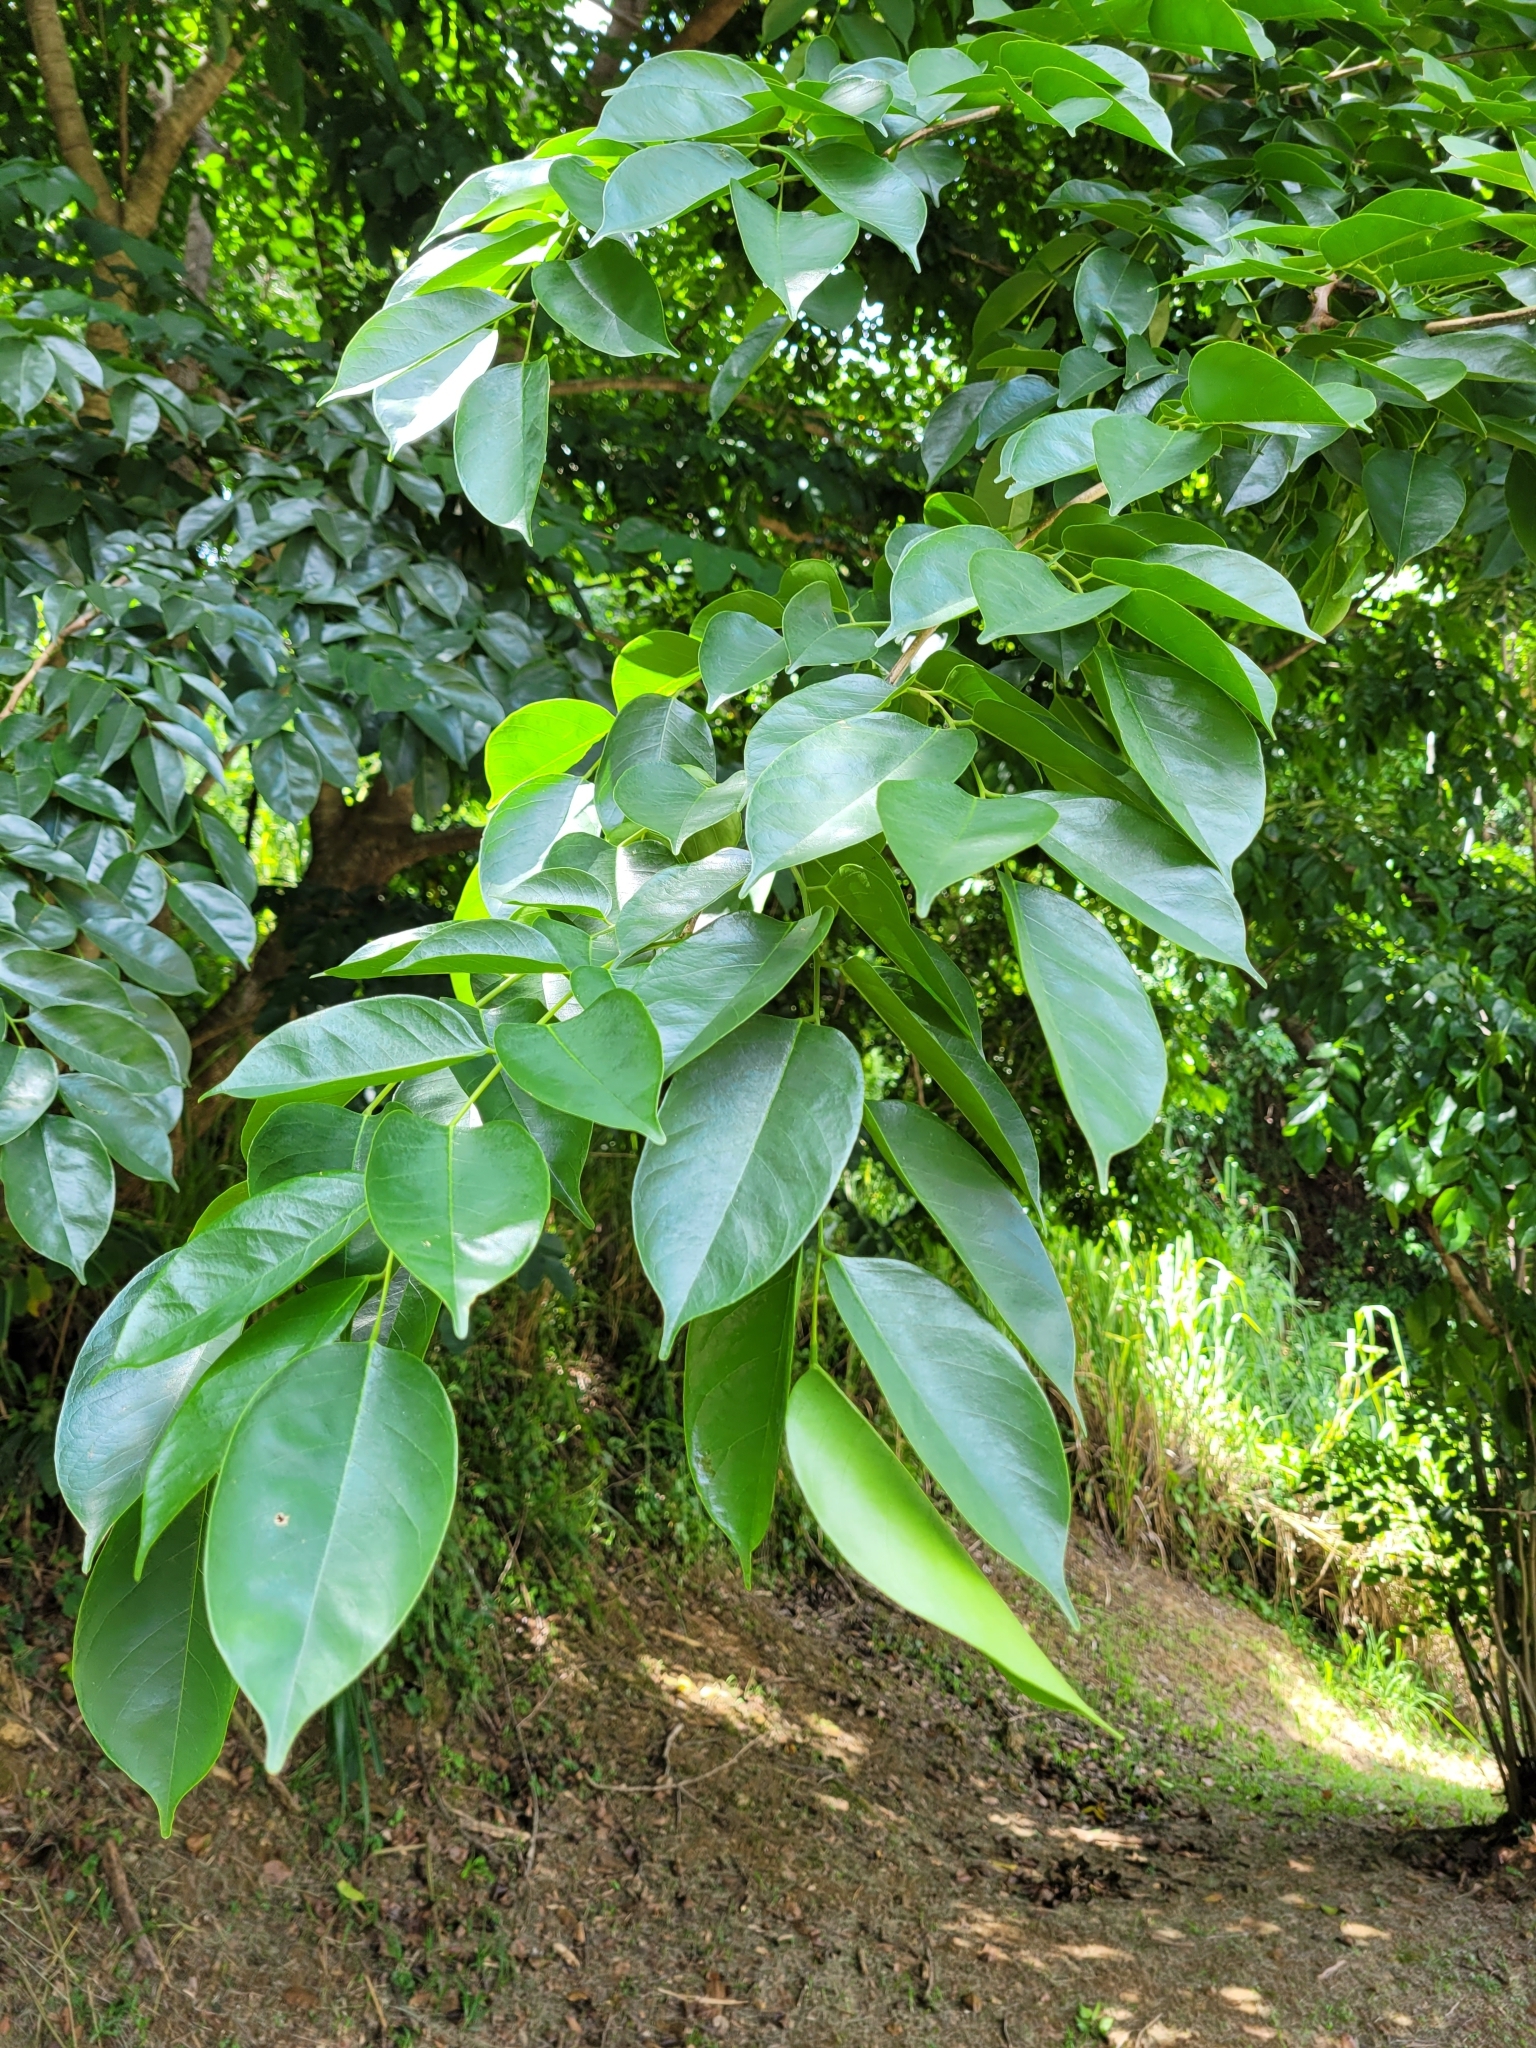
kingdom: Plantae
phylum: Tracheophyta
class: Magnoliopsida
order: Fabales
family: Fabaceae
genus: Pterocarpus
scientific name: Pterocarpus indicus
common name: Burmese rosewood
